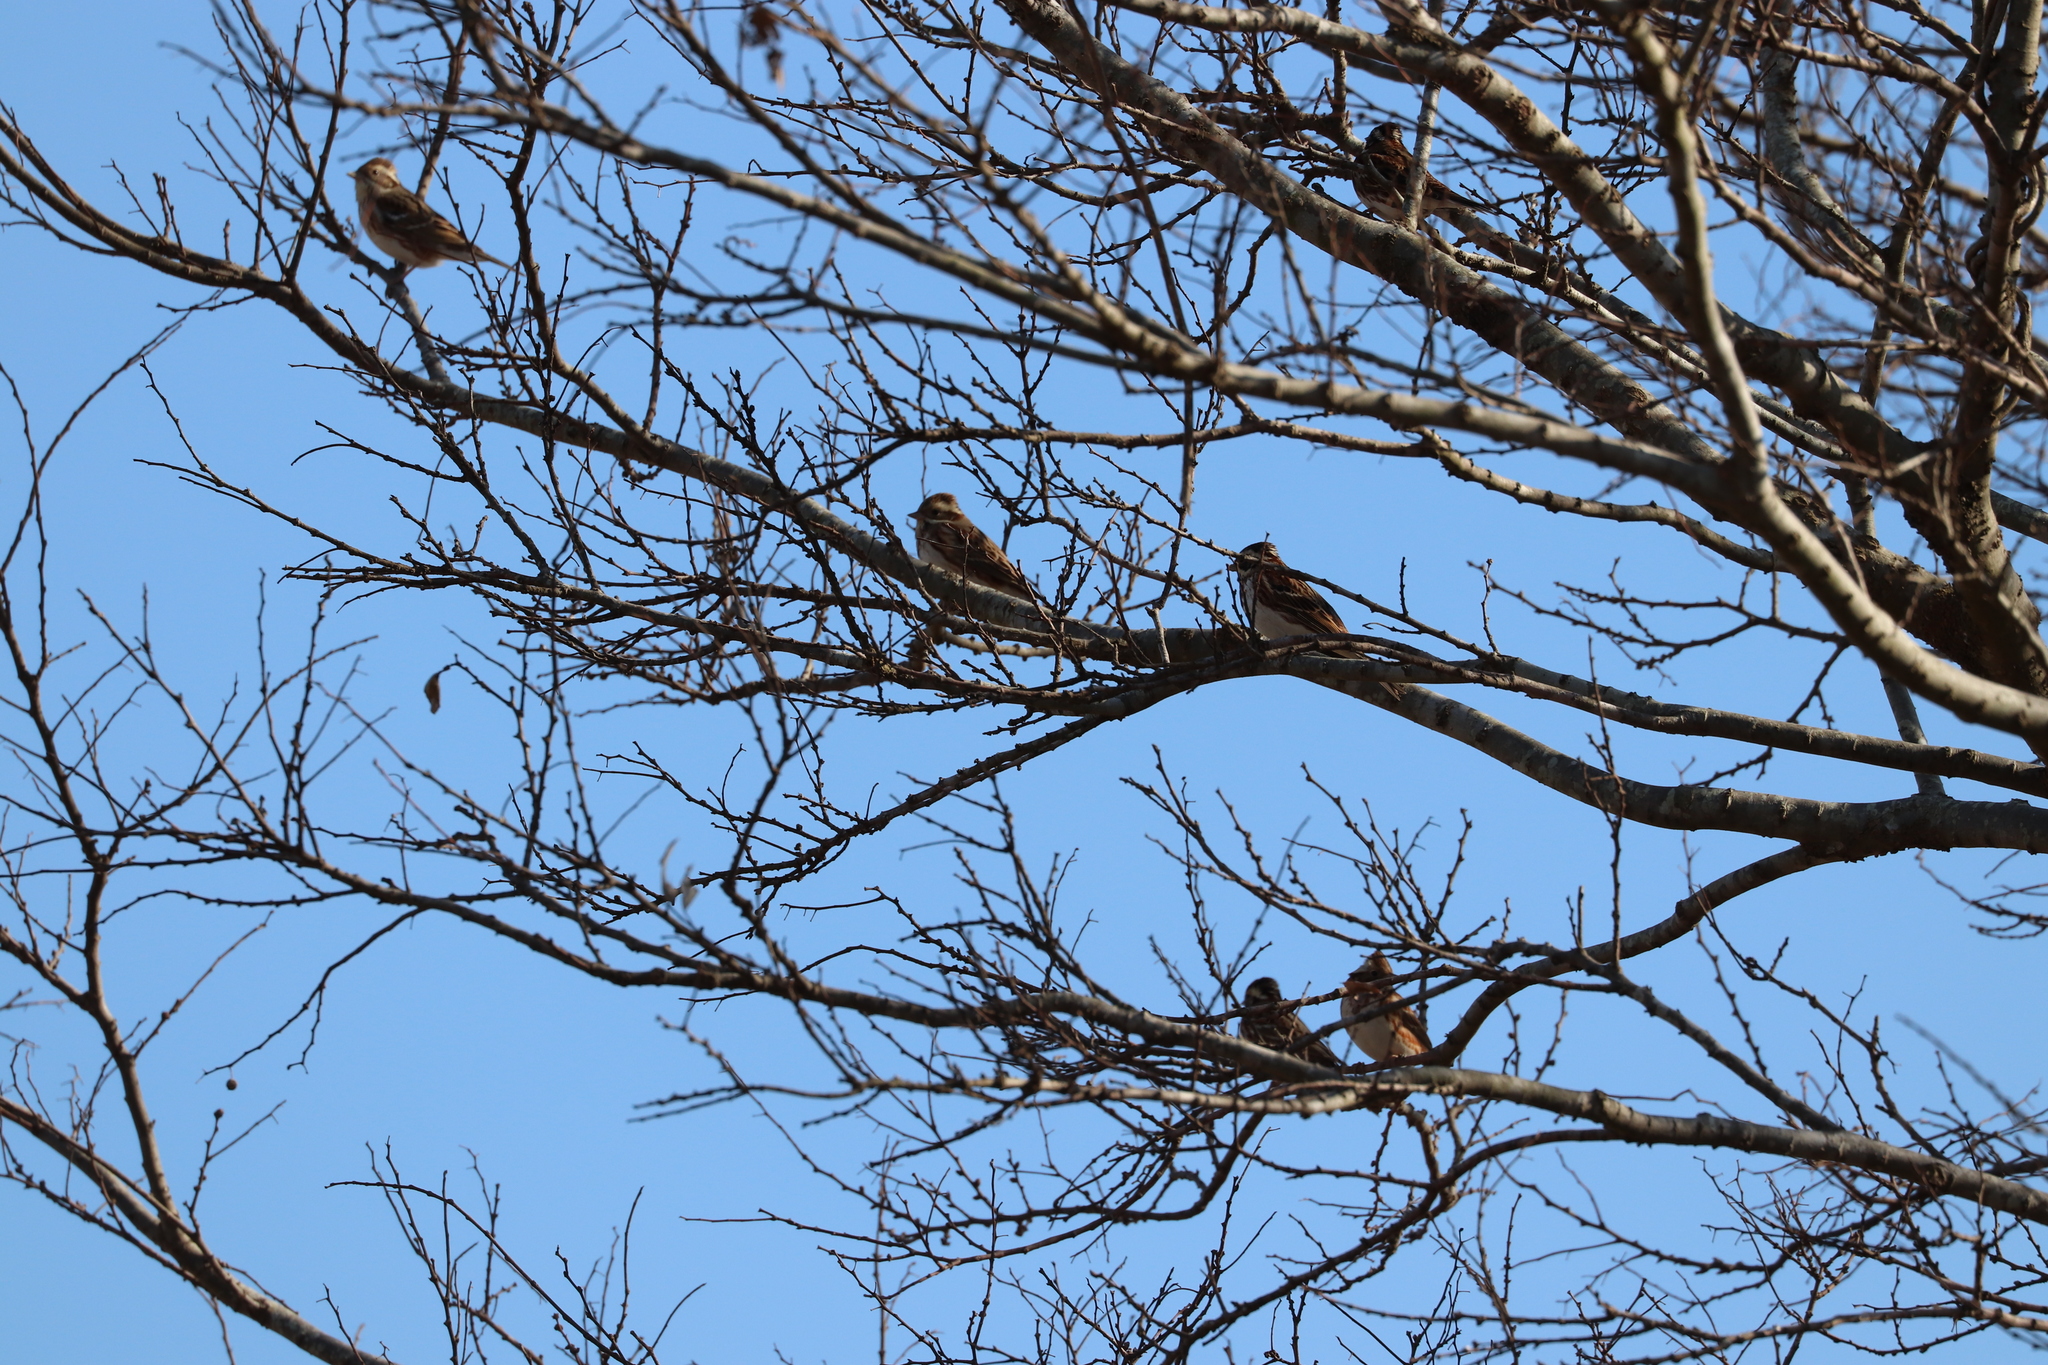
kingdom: Animalia
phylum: Chordata
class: Aves
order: Passeriformes
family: Emberizidae
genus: Emberiza
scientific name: Emberiza rustica
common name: Rustic bunting
